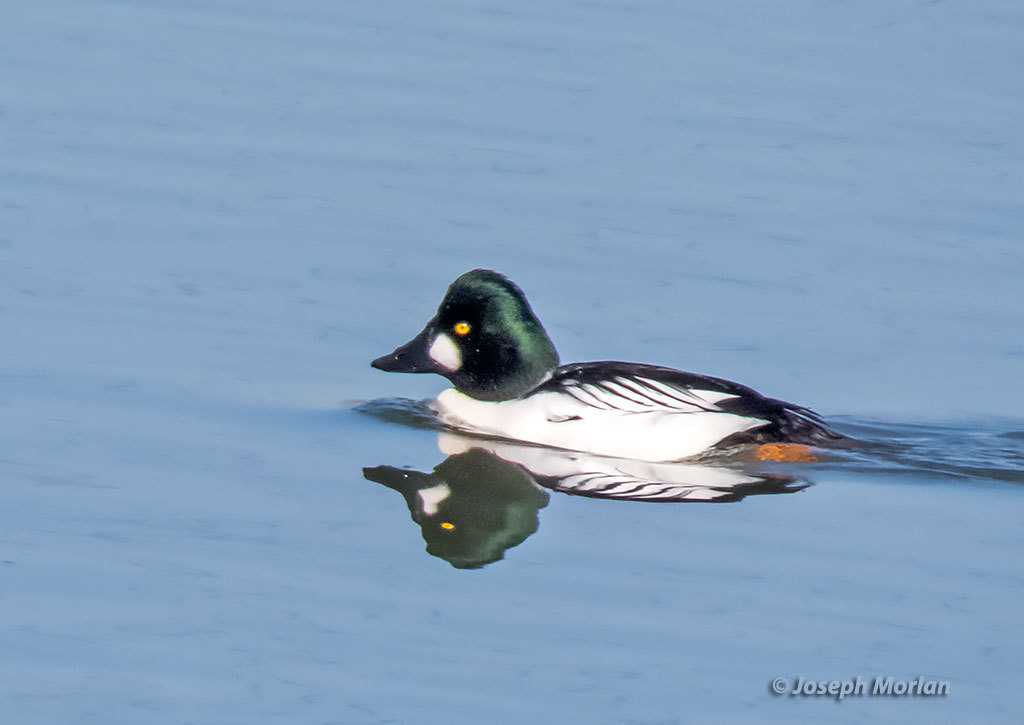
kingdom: Animalia
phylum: Chordata
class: Aves
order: Anseriformes
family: Anatidae
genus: Bucephala
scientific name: Bucephala clangula
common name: Common goldeneye
